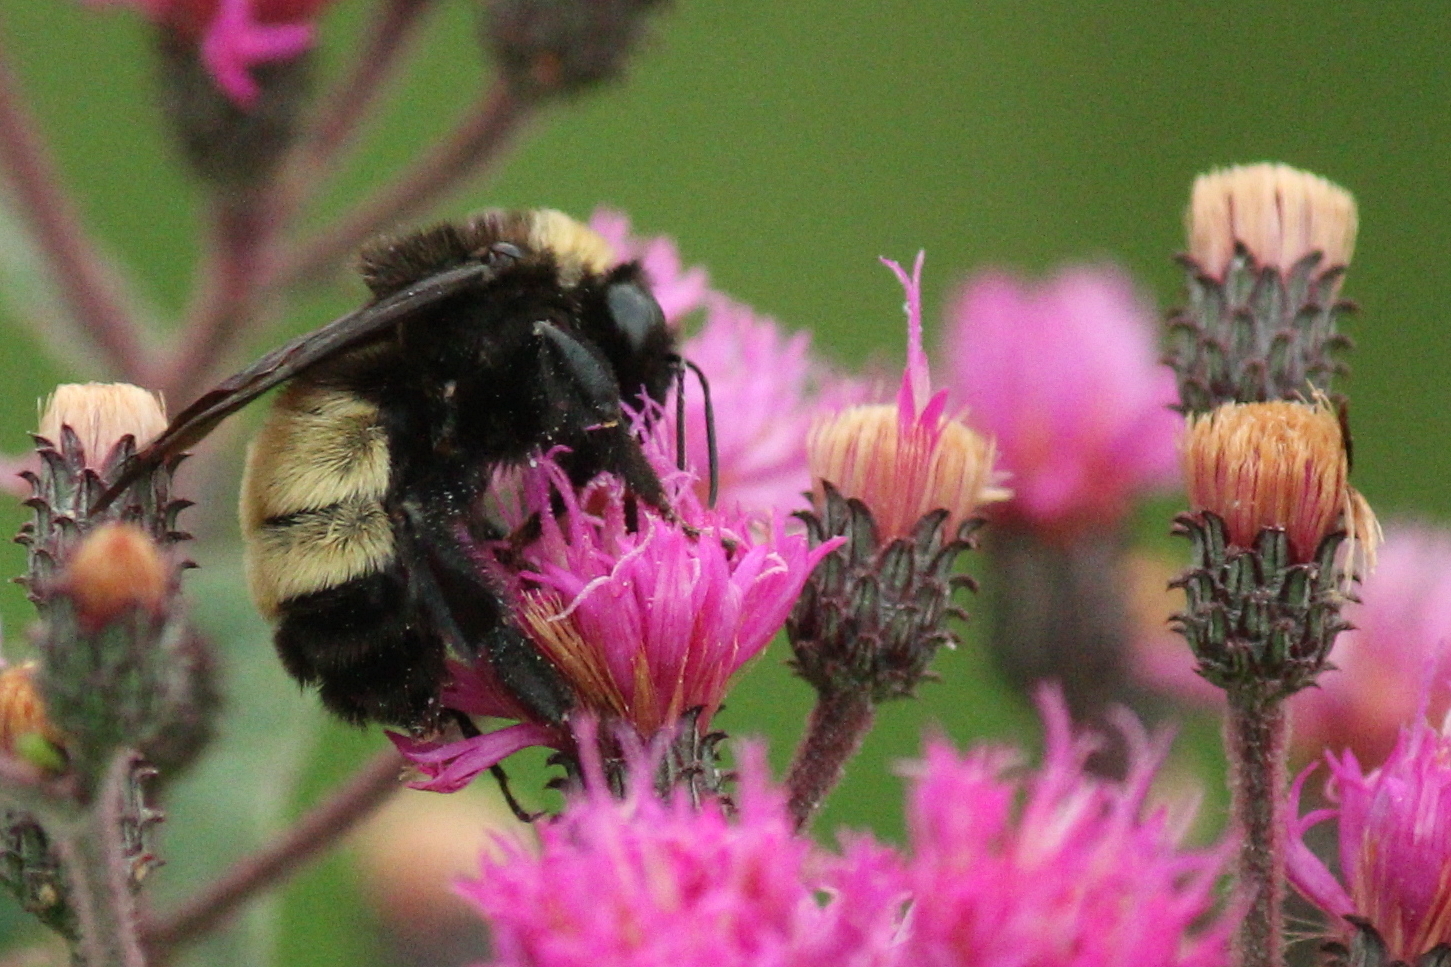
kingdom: Animalia
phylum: Arthropoda
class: Insecta
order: Hymenoptera
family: Apidae
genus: Bombus
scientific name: Bombus pensylvanicus
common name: Bumble bee
